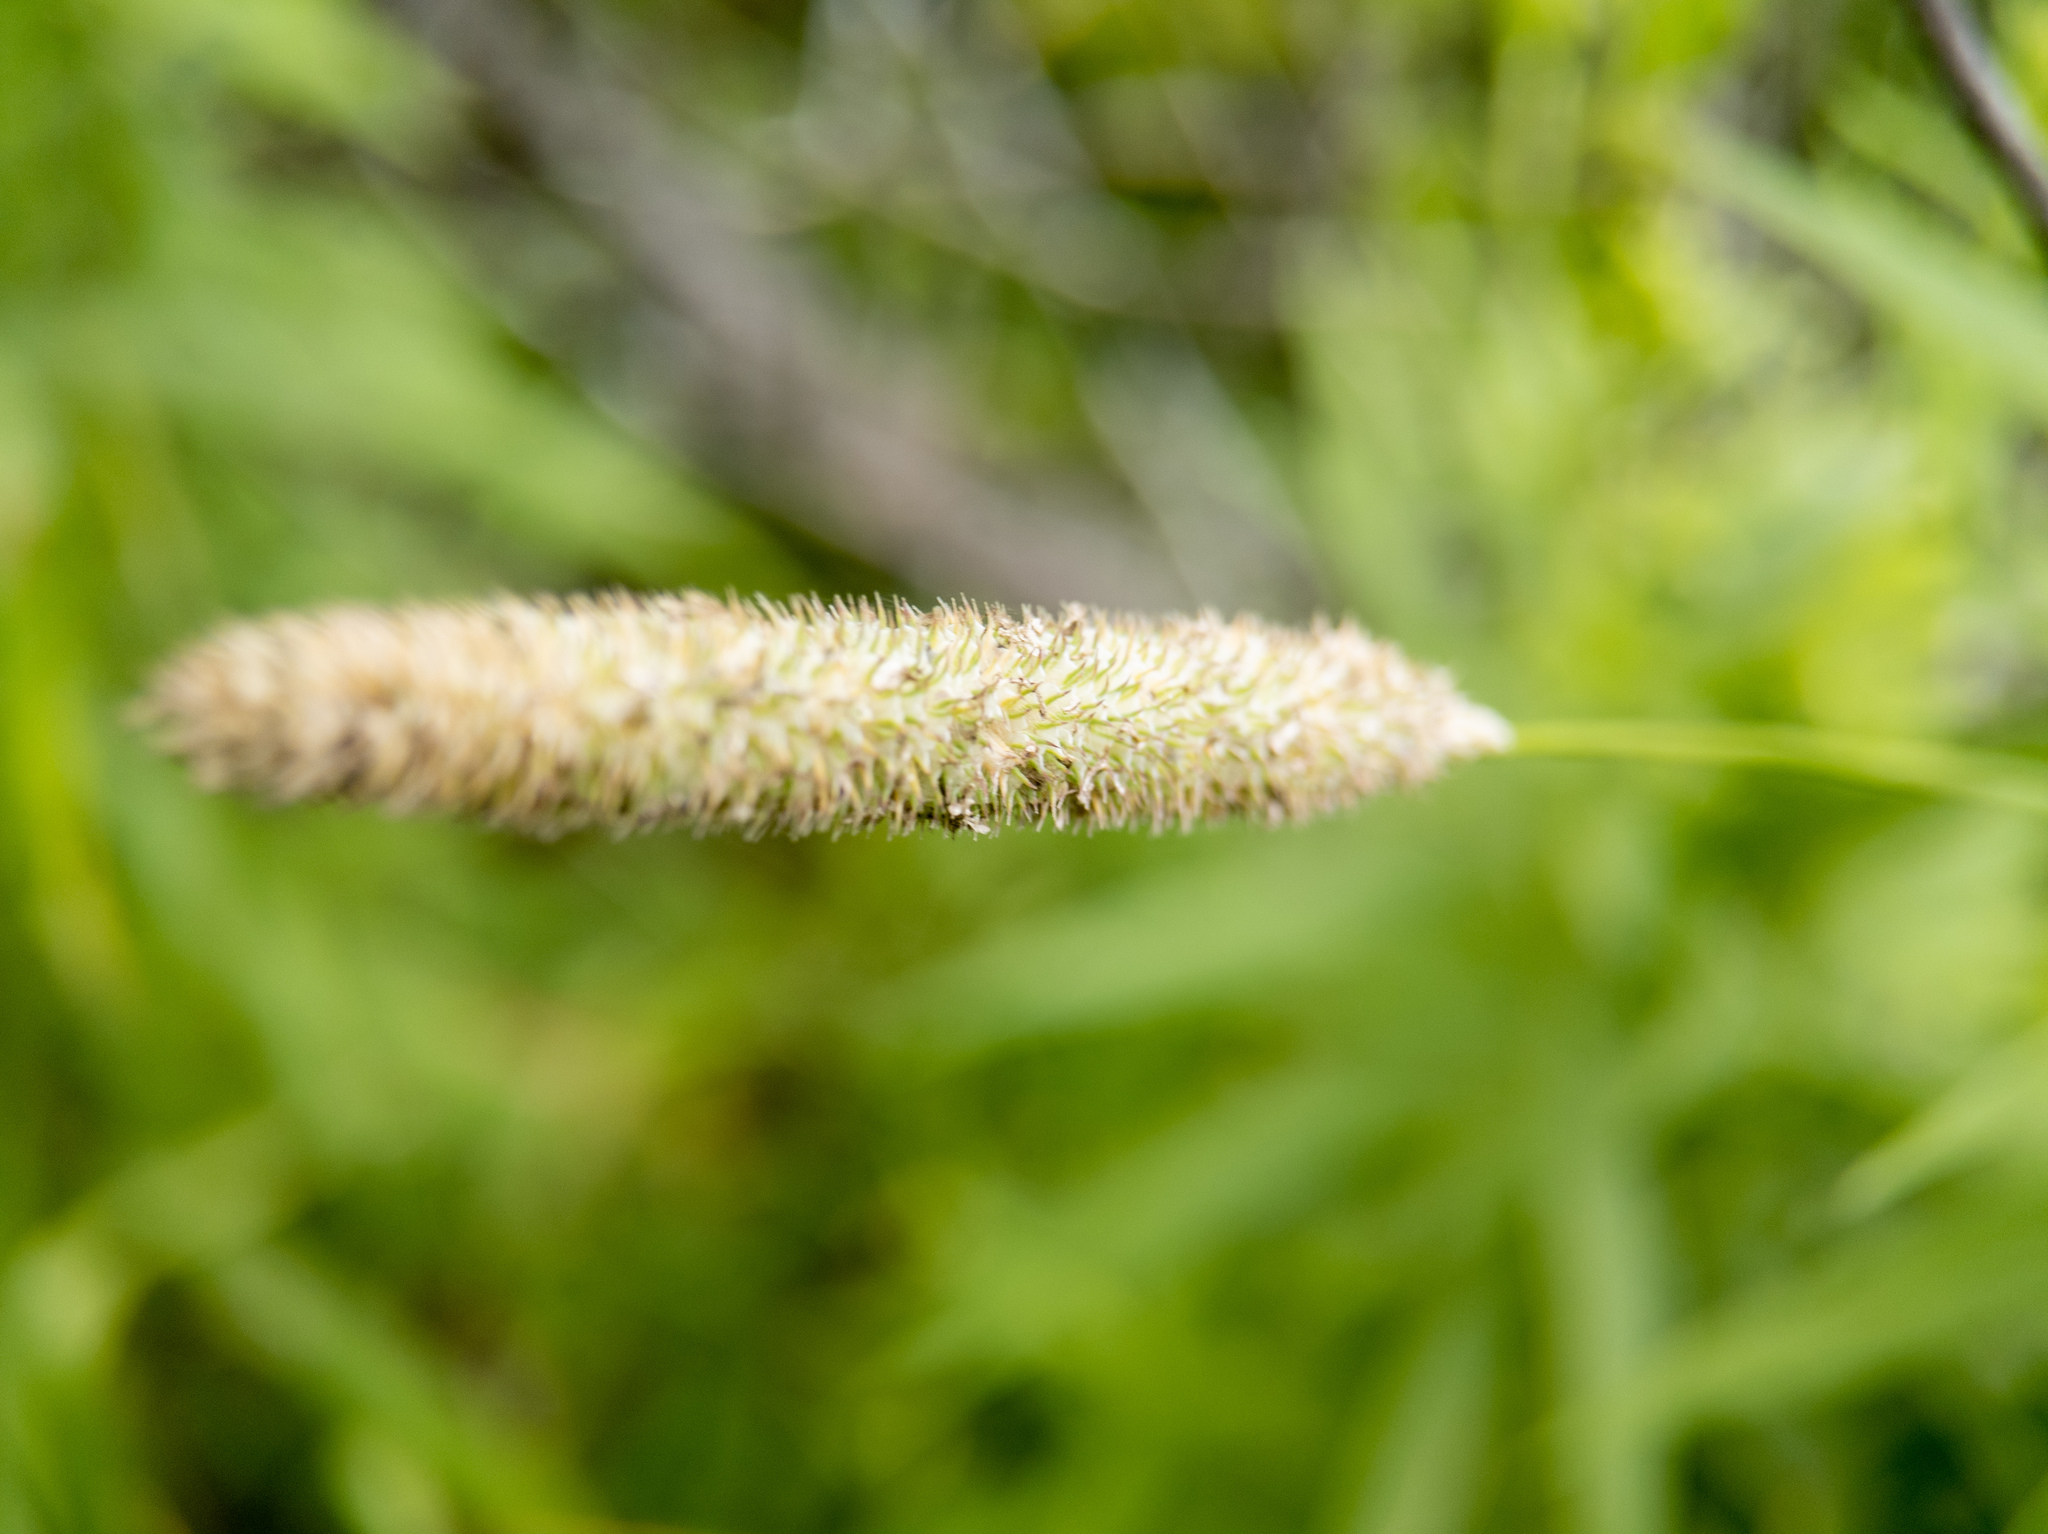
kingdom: Plantae
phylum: Tracheophyta
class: Liliopsida
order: Poales
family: Poaceae
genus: Phleum
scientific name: Phleum pratense
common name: Timothy grass
